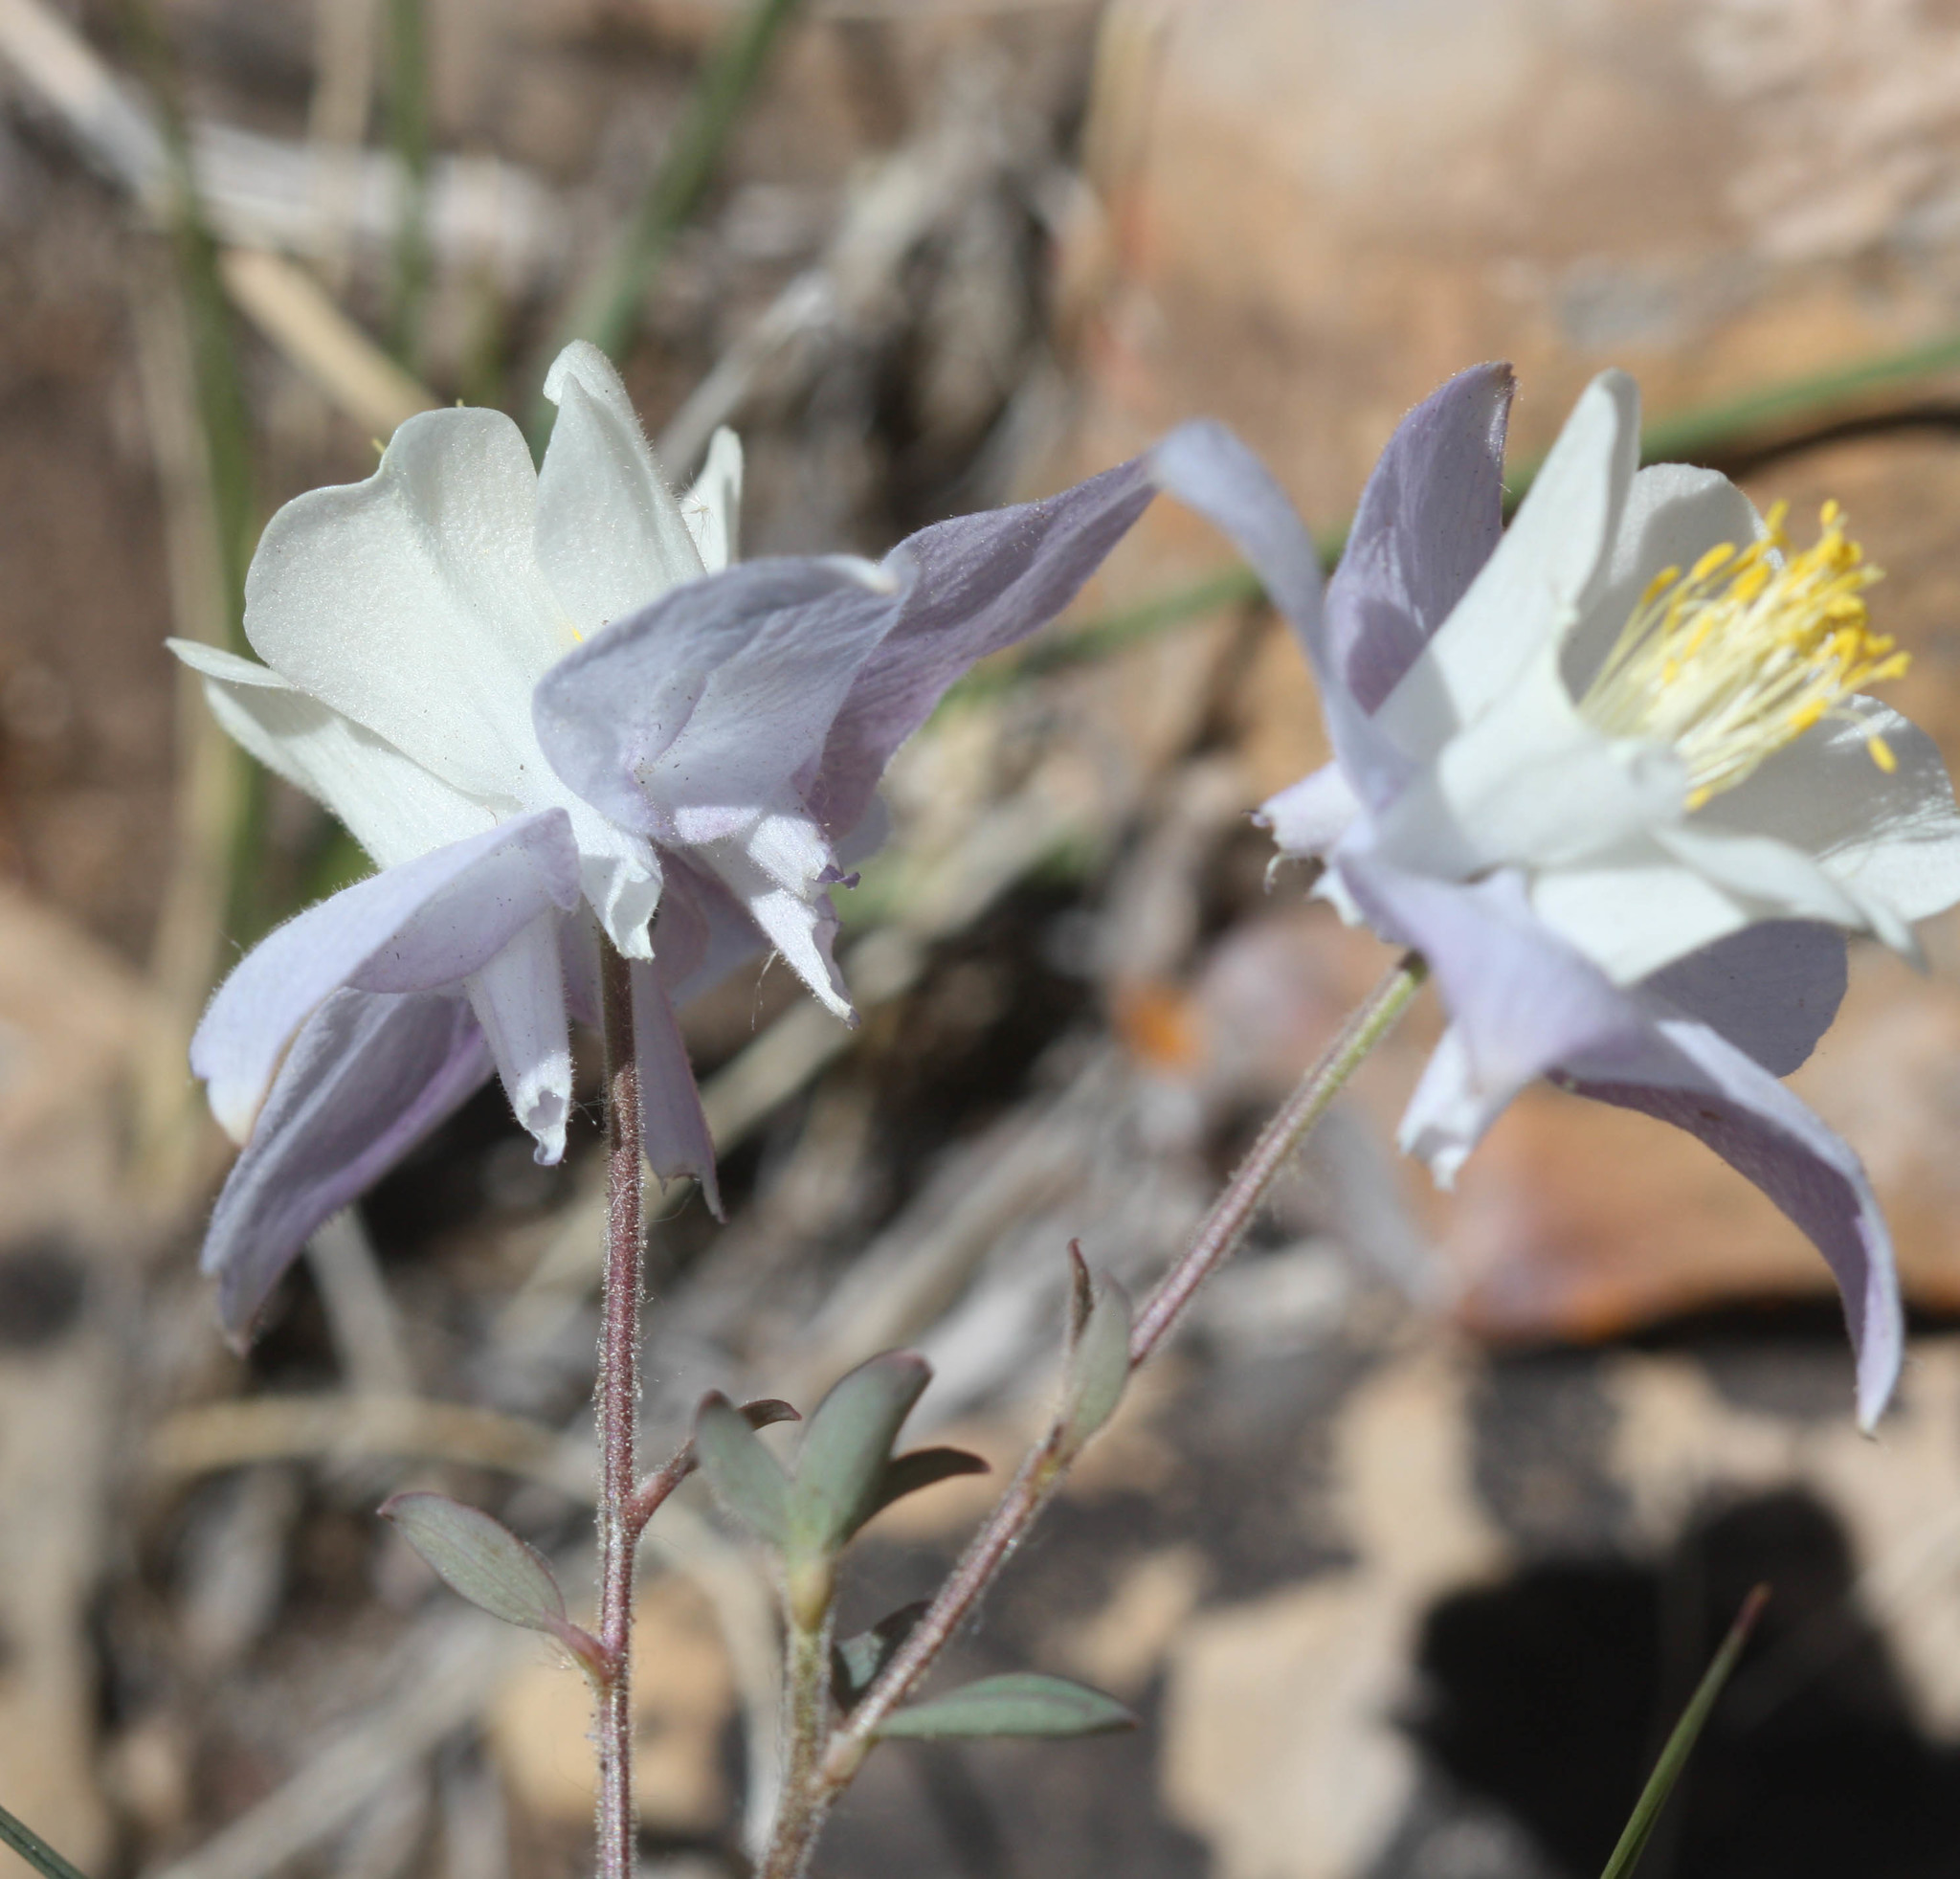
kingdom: Plantae
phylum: Tracheophyta
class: Magnoliopsida
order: Ranunculales
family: Ranunculaceae
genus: Aquilegia
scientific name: Aquilegia coerulea
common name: Rocky mountain columbine
